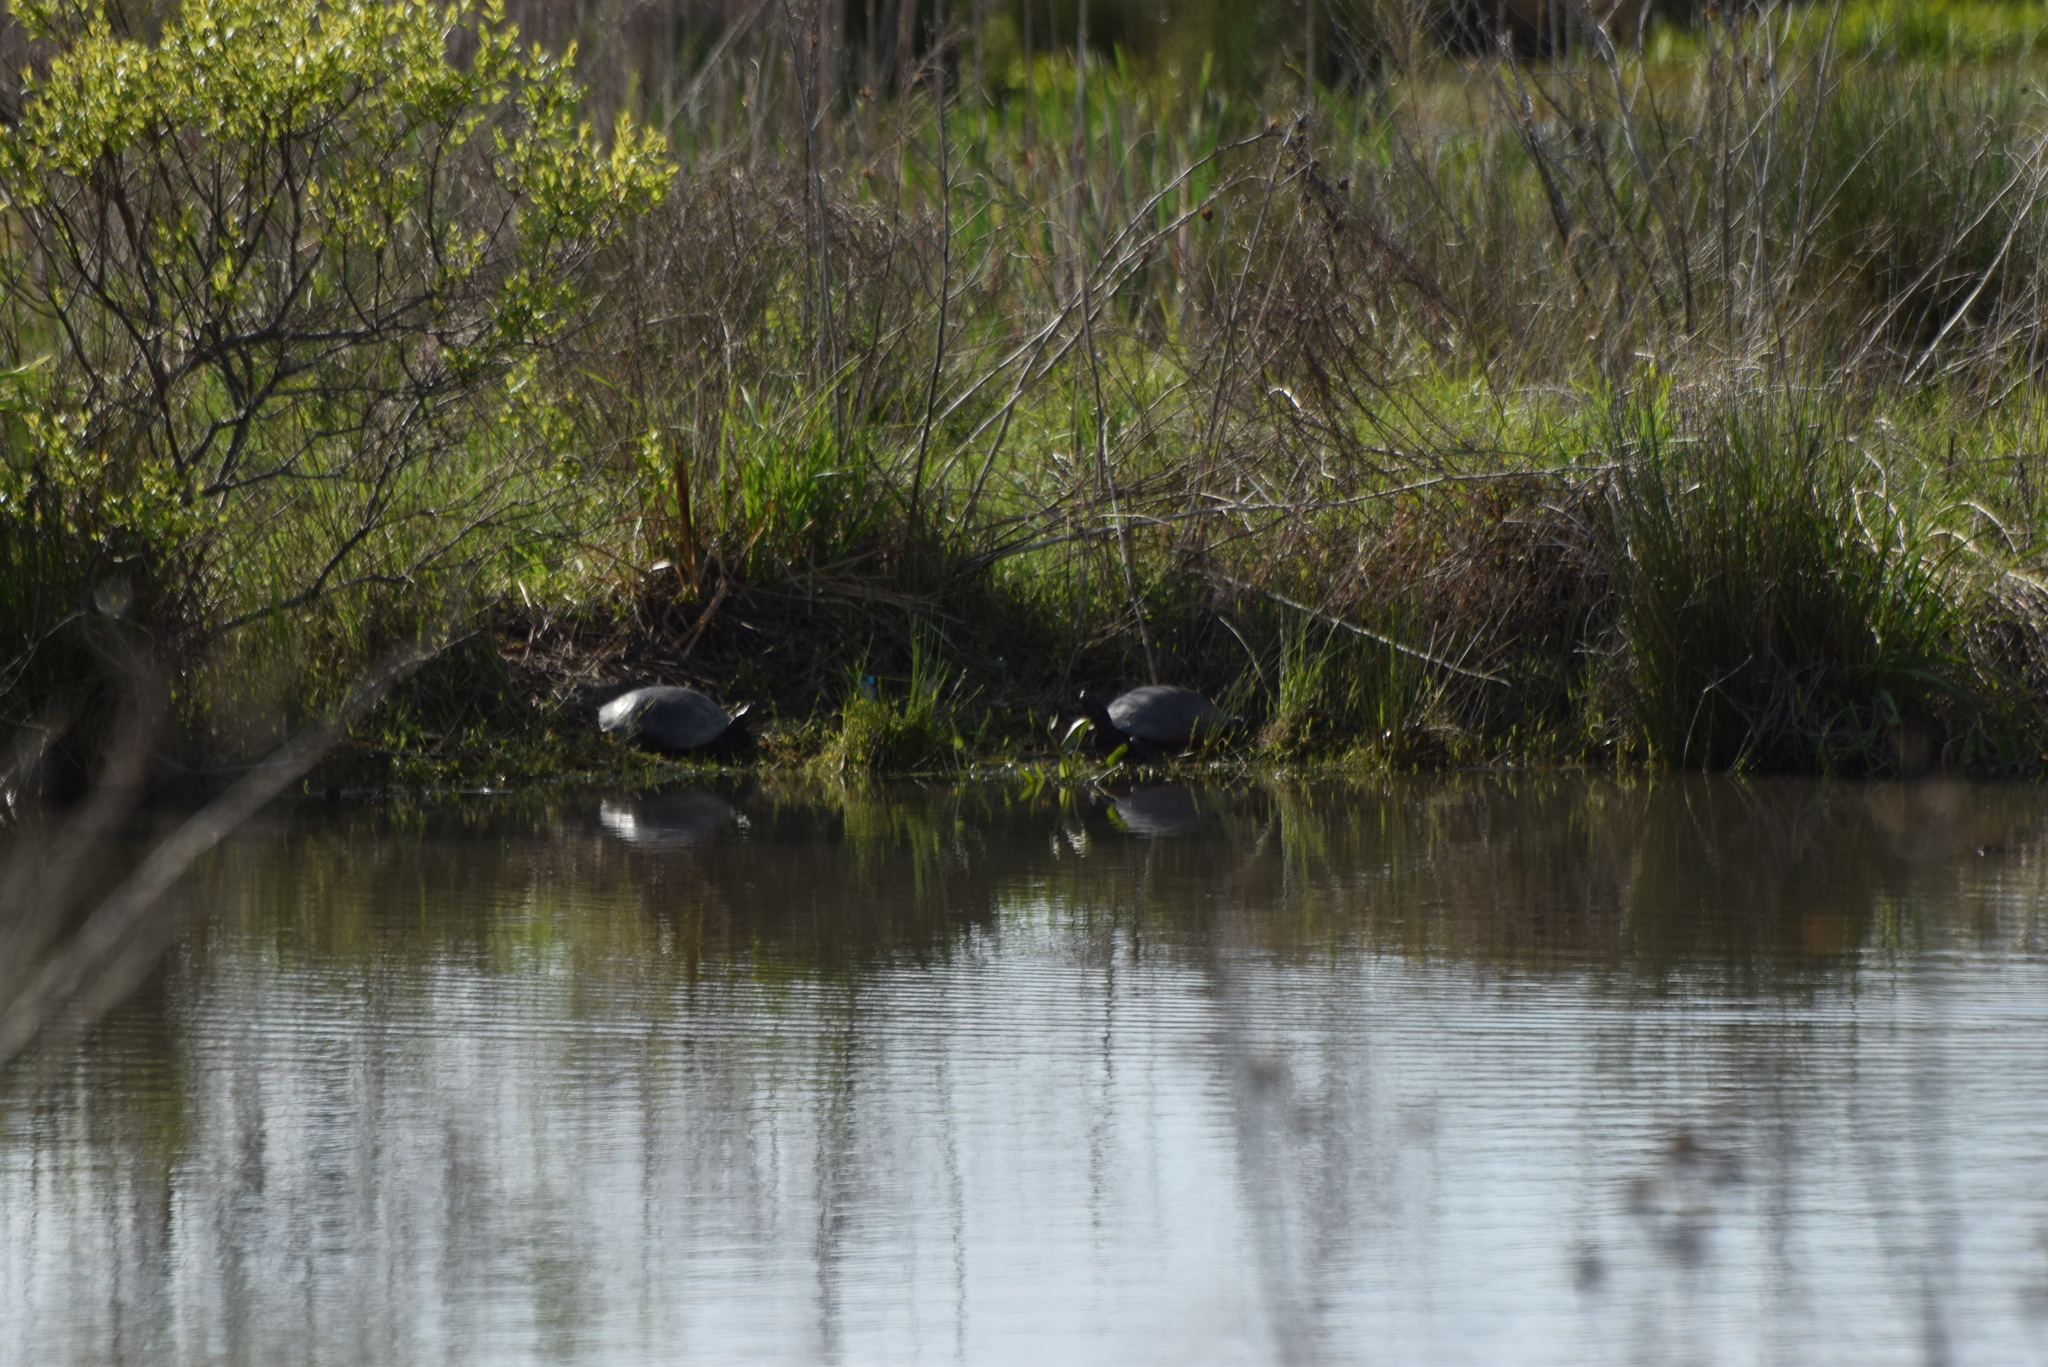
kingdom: Animalia
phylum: Chordata
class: Testudines
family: Emydidae
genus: Pseudemys
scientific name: Pseudemys rubriventris
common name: American red-bellied turtle
